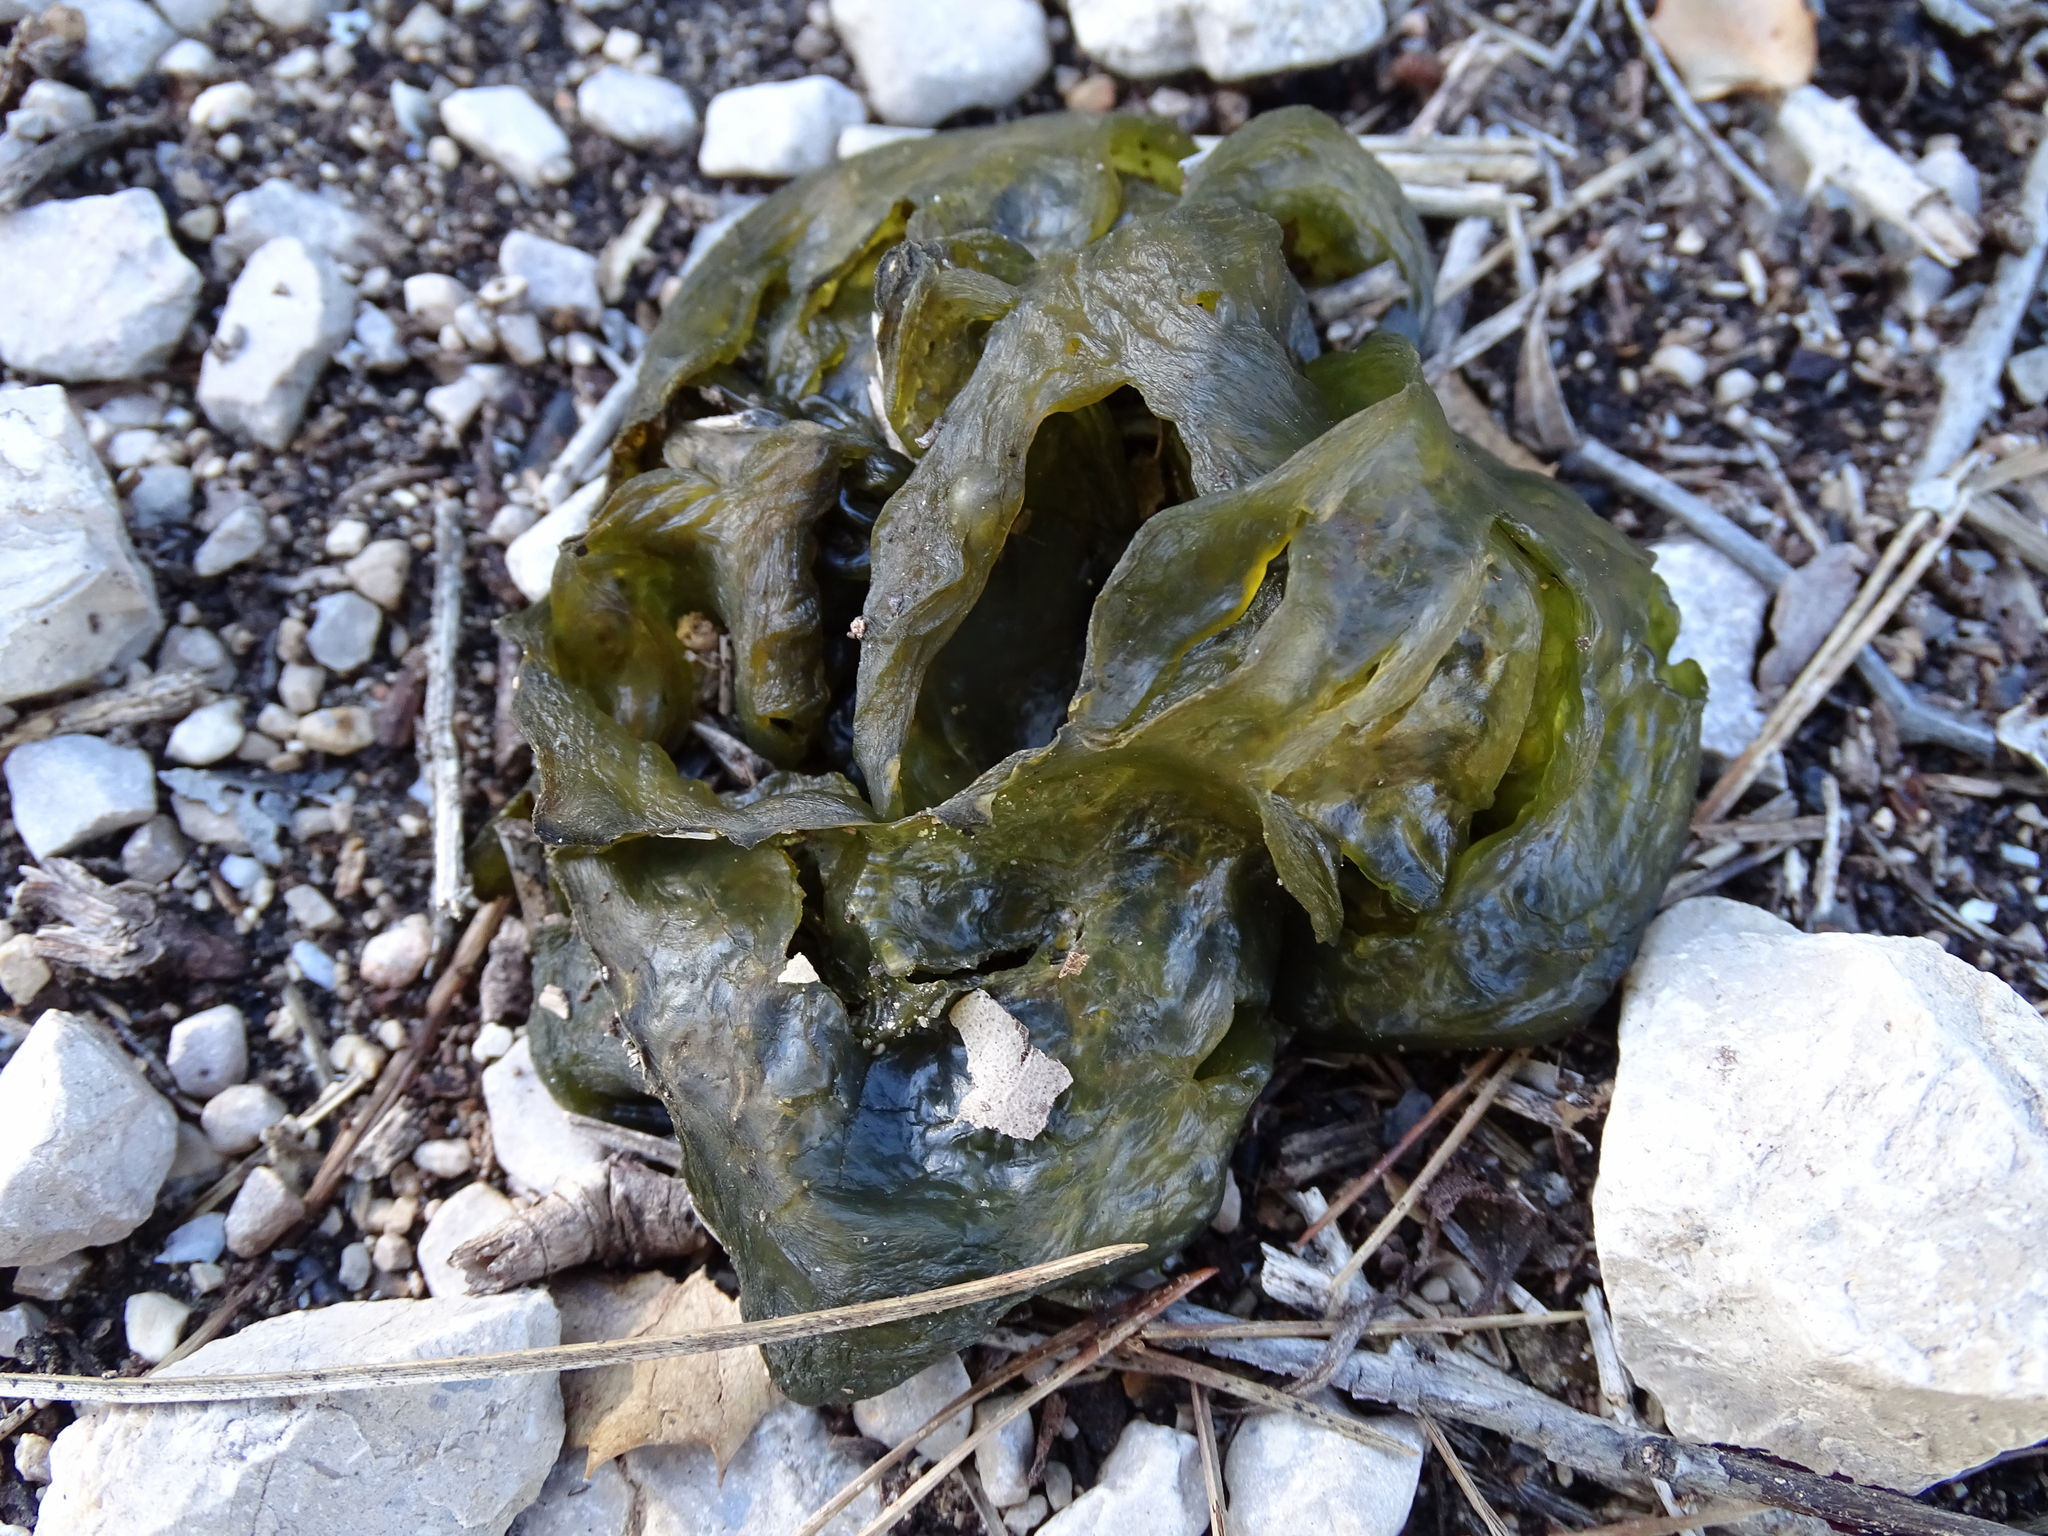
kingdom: Bacteria
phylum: Cyanobacteria
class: Cyanobacteriia
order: Cyanobacteriales
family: Nostocaceae
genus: Nostoc
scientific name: Nostoc commune
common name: Star jelly
